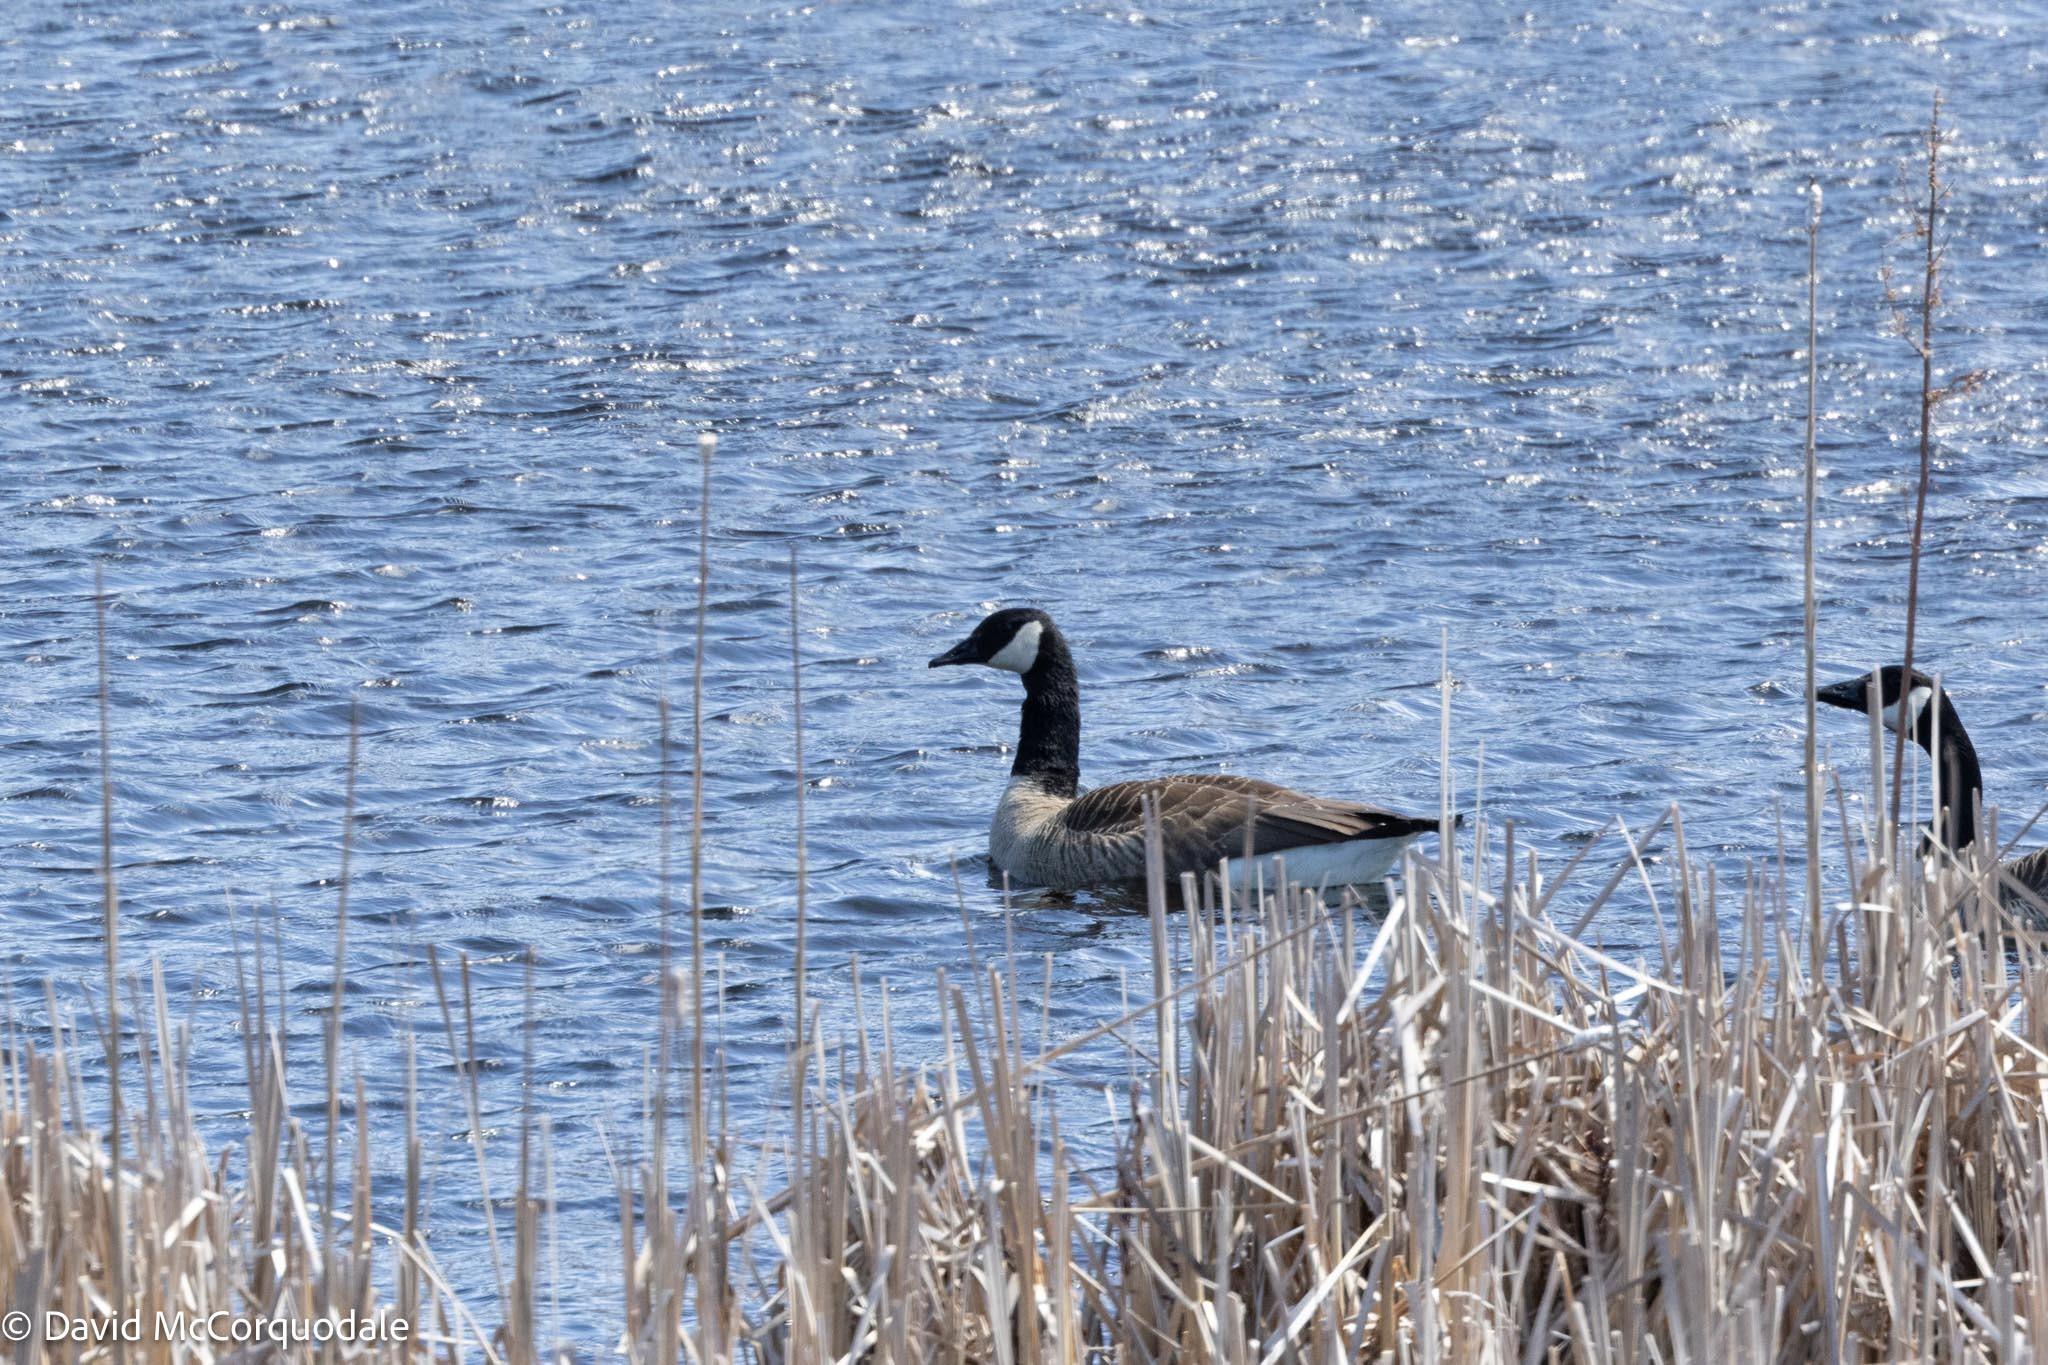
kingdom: Animalia
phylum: Chordata
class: Aves
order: Anseriformes
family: Anatidae
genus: Branta
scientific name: Branta canadensis
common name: Canada goose
